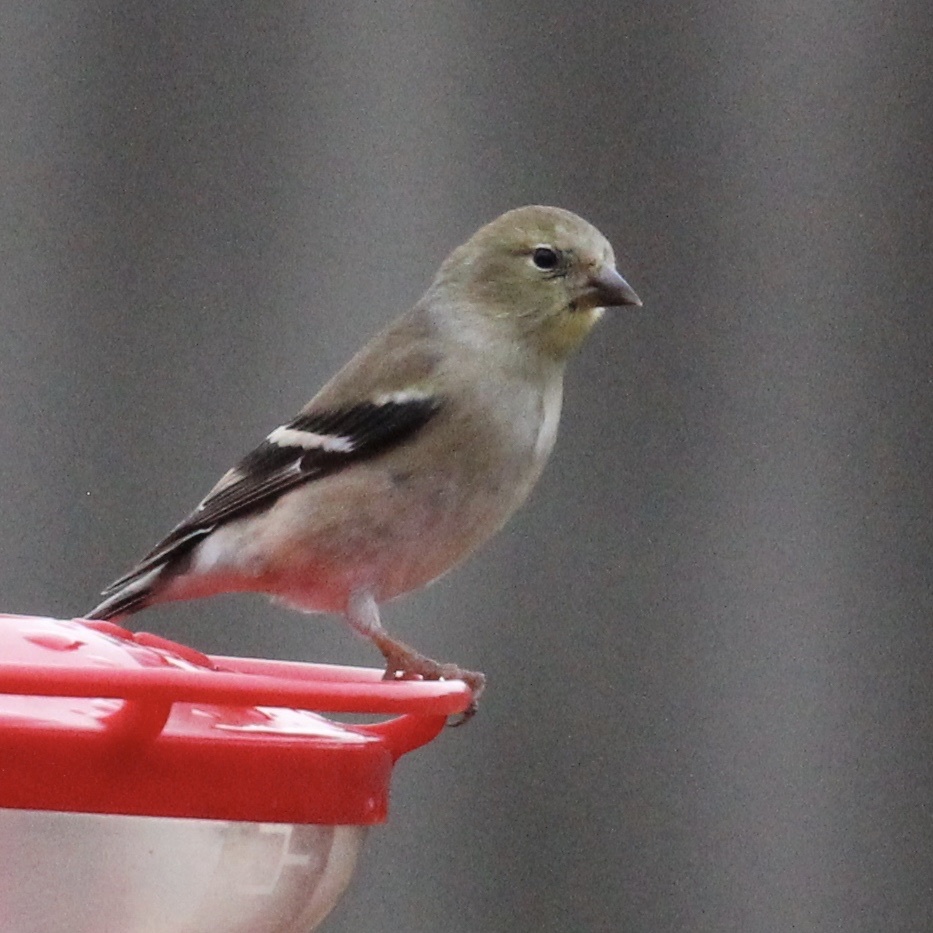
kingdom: Animalia
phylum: Chordata
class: Aves
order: Passeriformes
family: Fringillidae
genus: Spinus
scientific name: Spinus tristis
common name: American goldfinch
